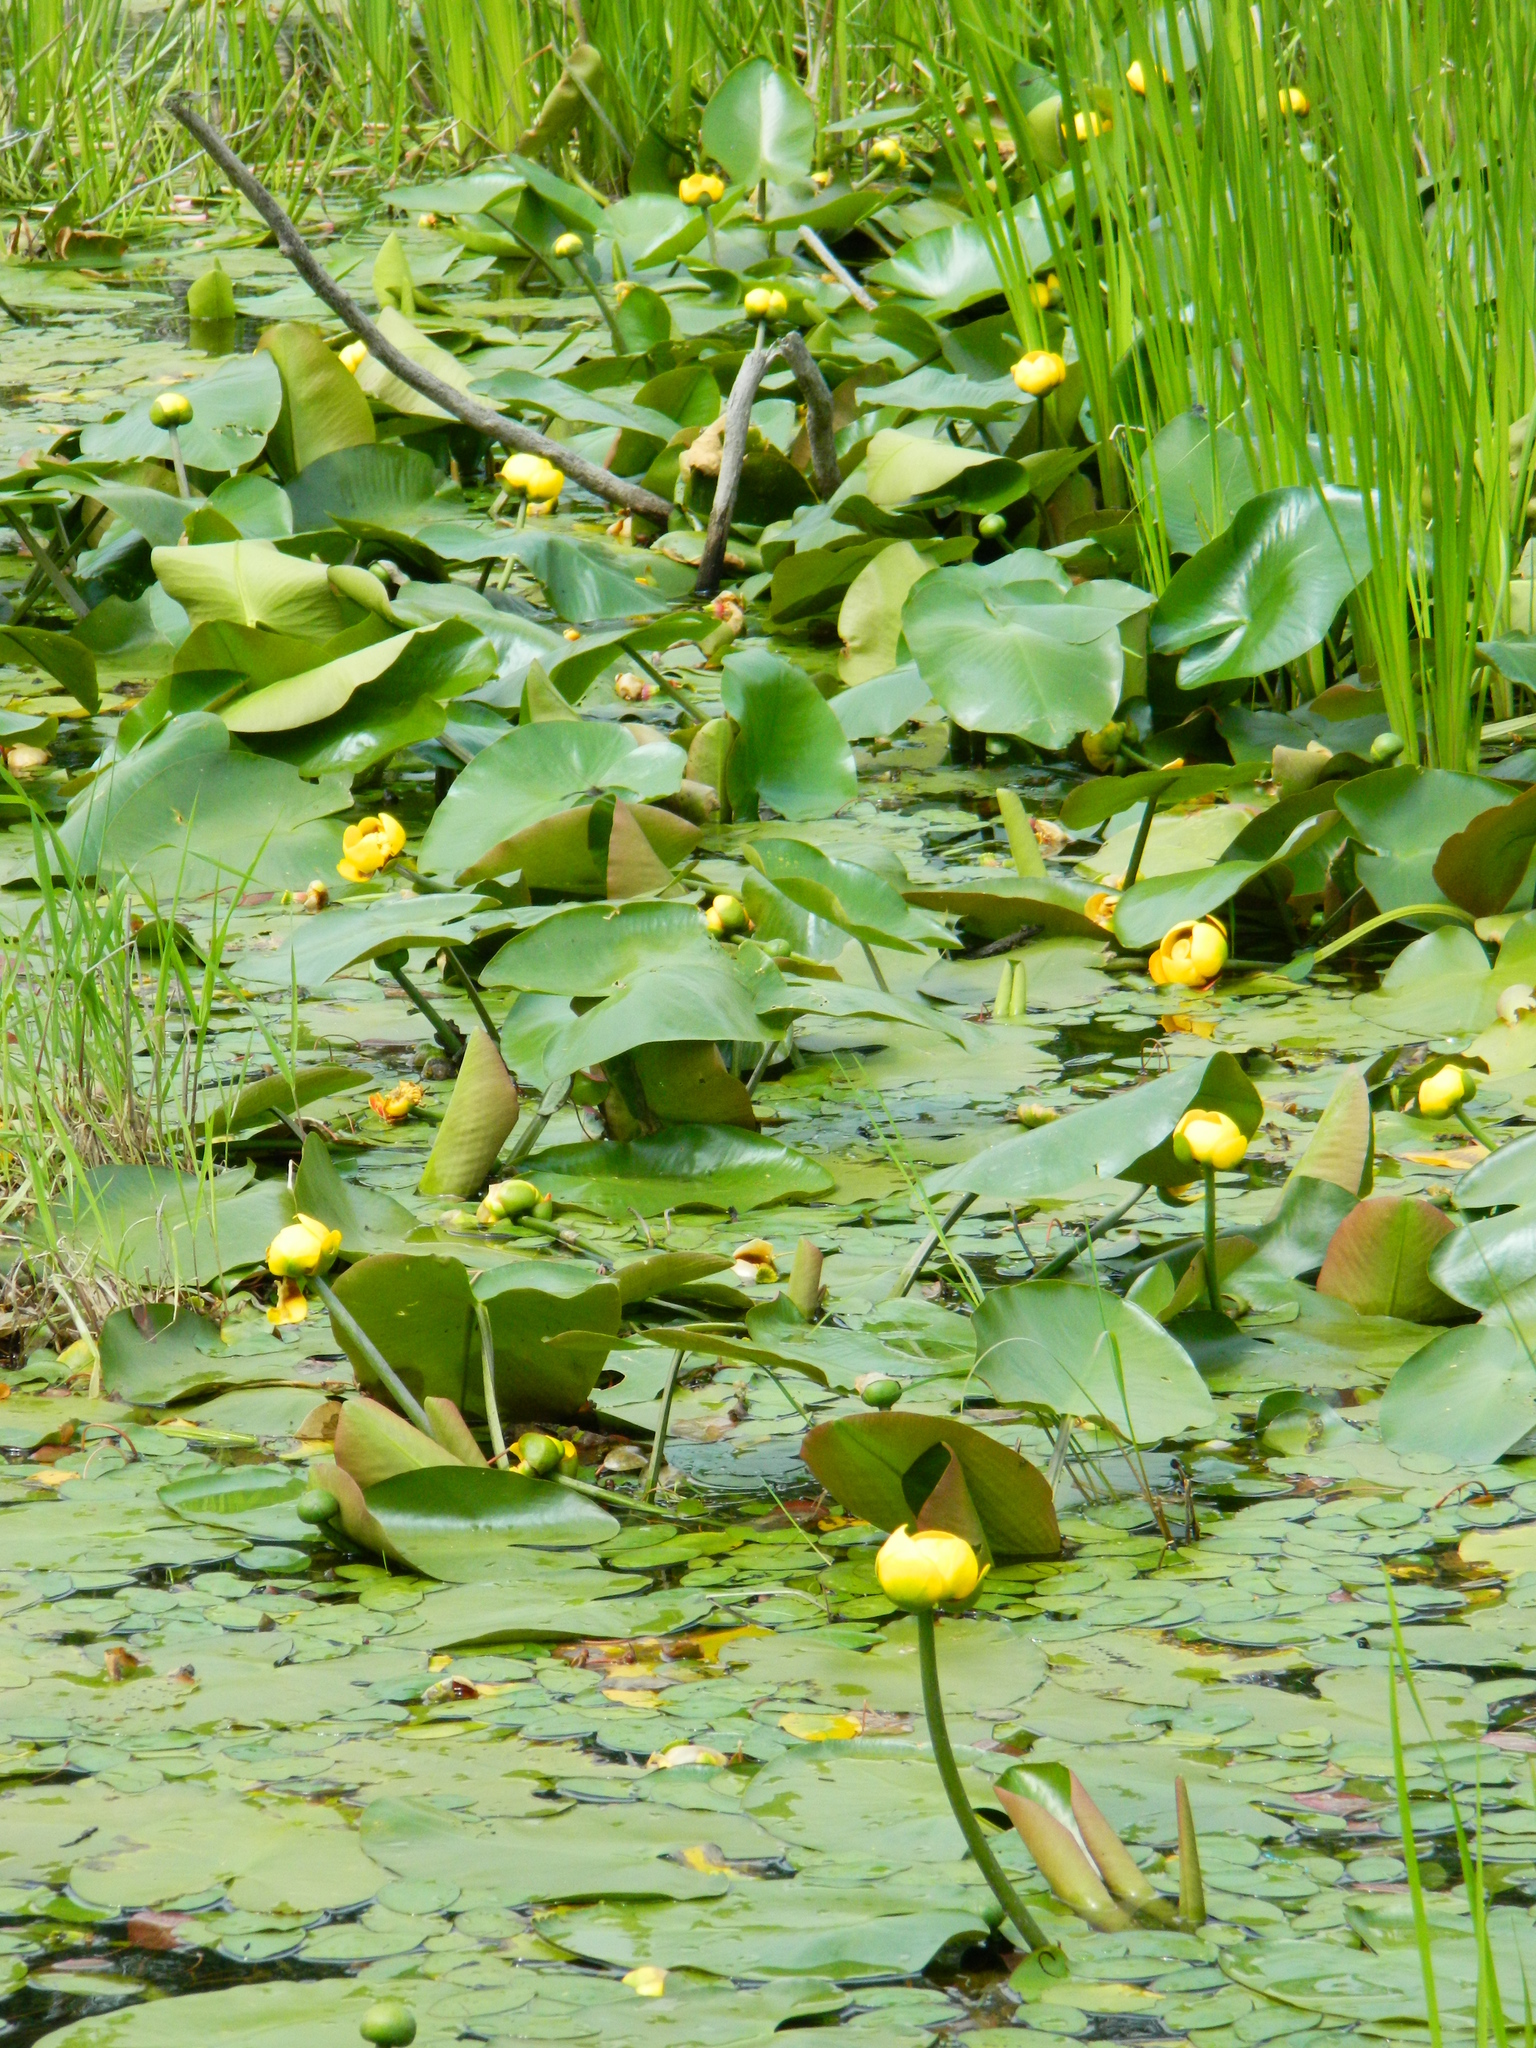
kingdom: Plantae
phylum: Tracheophyta
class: Magnoliopsida
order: Nymphaeales
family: Nymphaeaceae
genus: Nuphar
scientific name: Nuphar variegata
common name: Beaver-root
